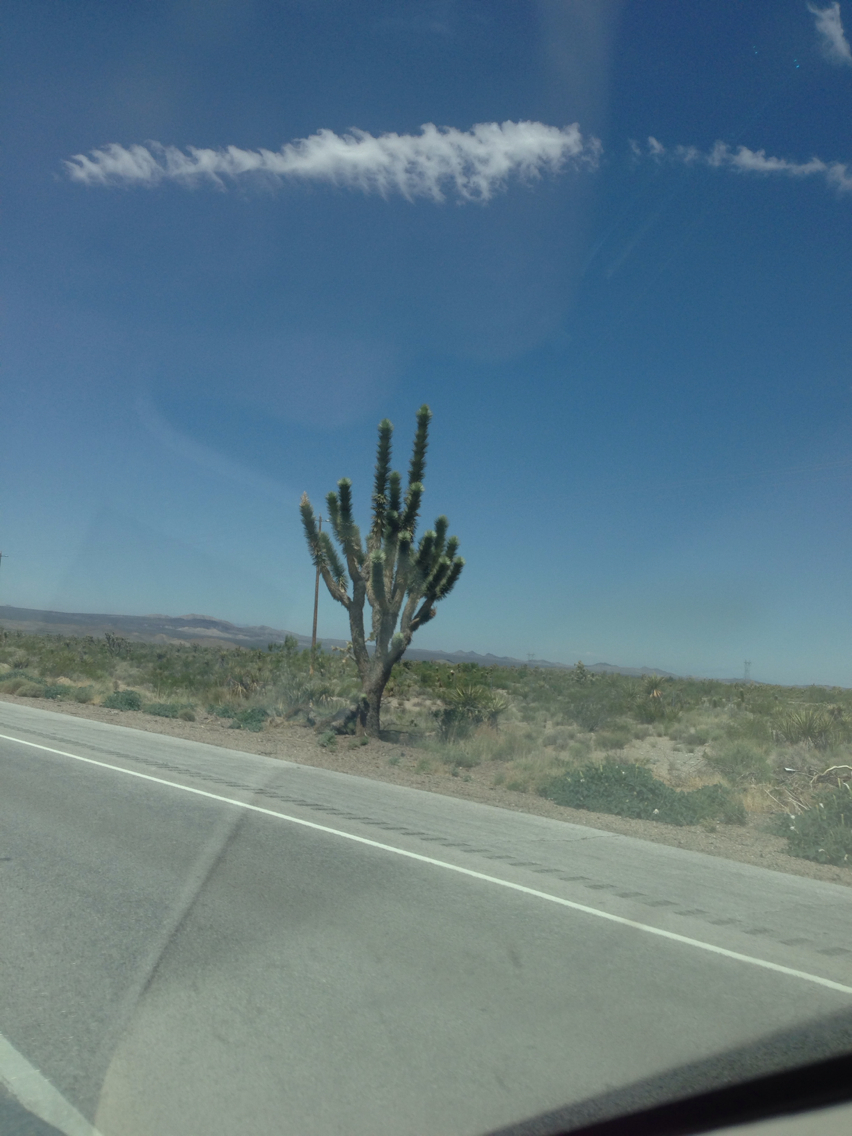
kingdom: Plantae
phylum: Tracheophyta
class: Liliopsida
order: Asparagales
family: Asparagaceae
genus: Yucca
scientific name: Yucca brevifolia
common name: Joshua tree
